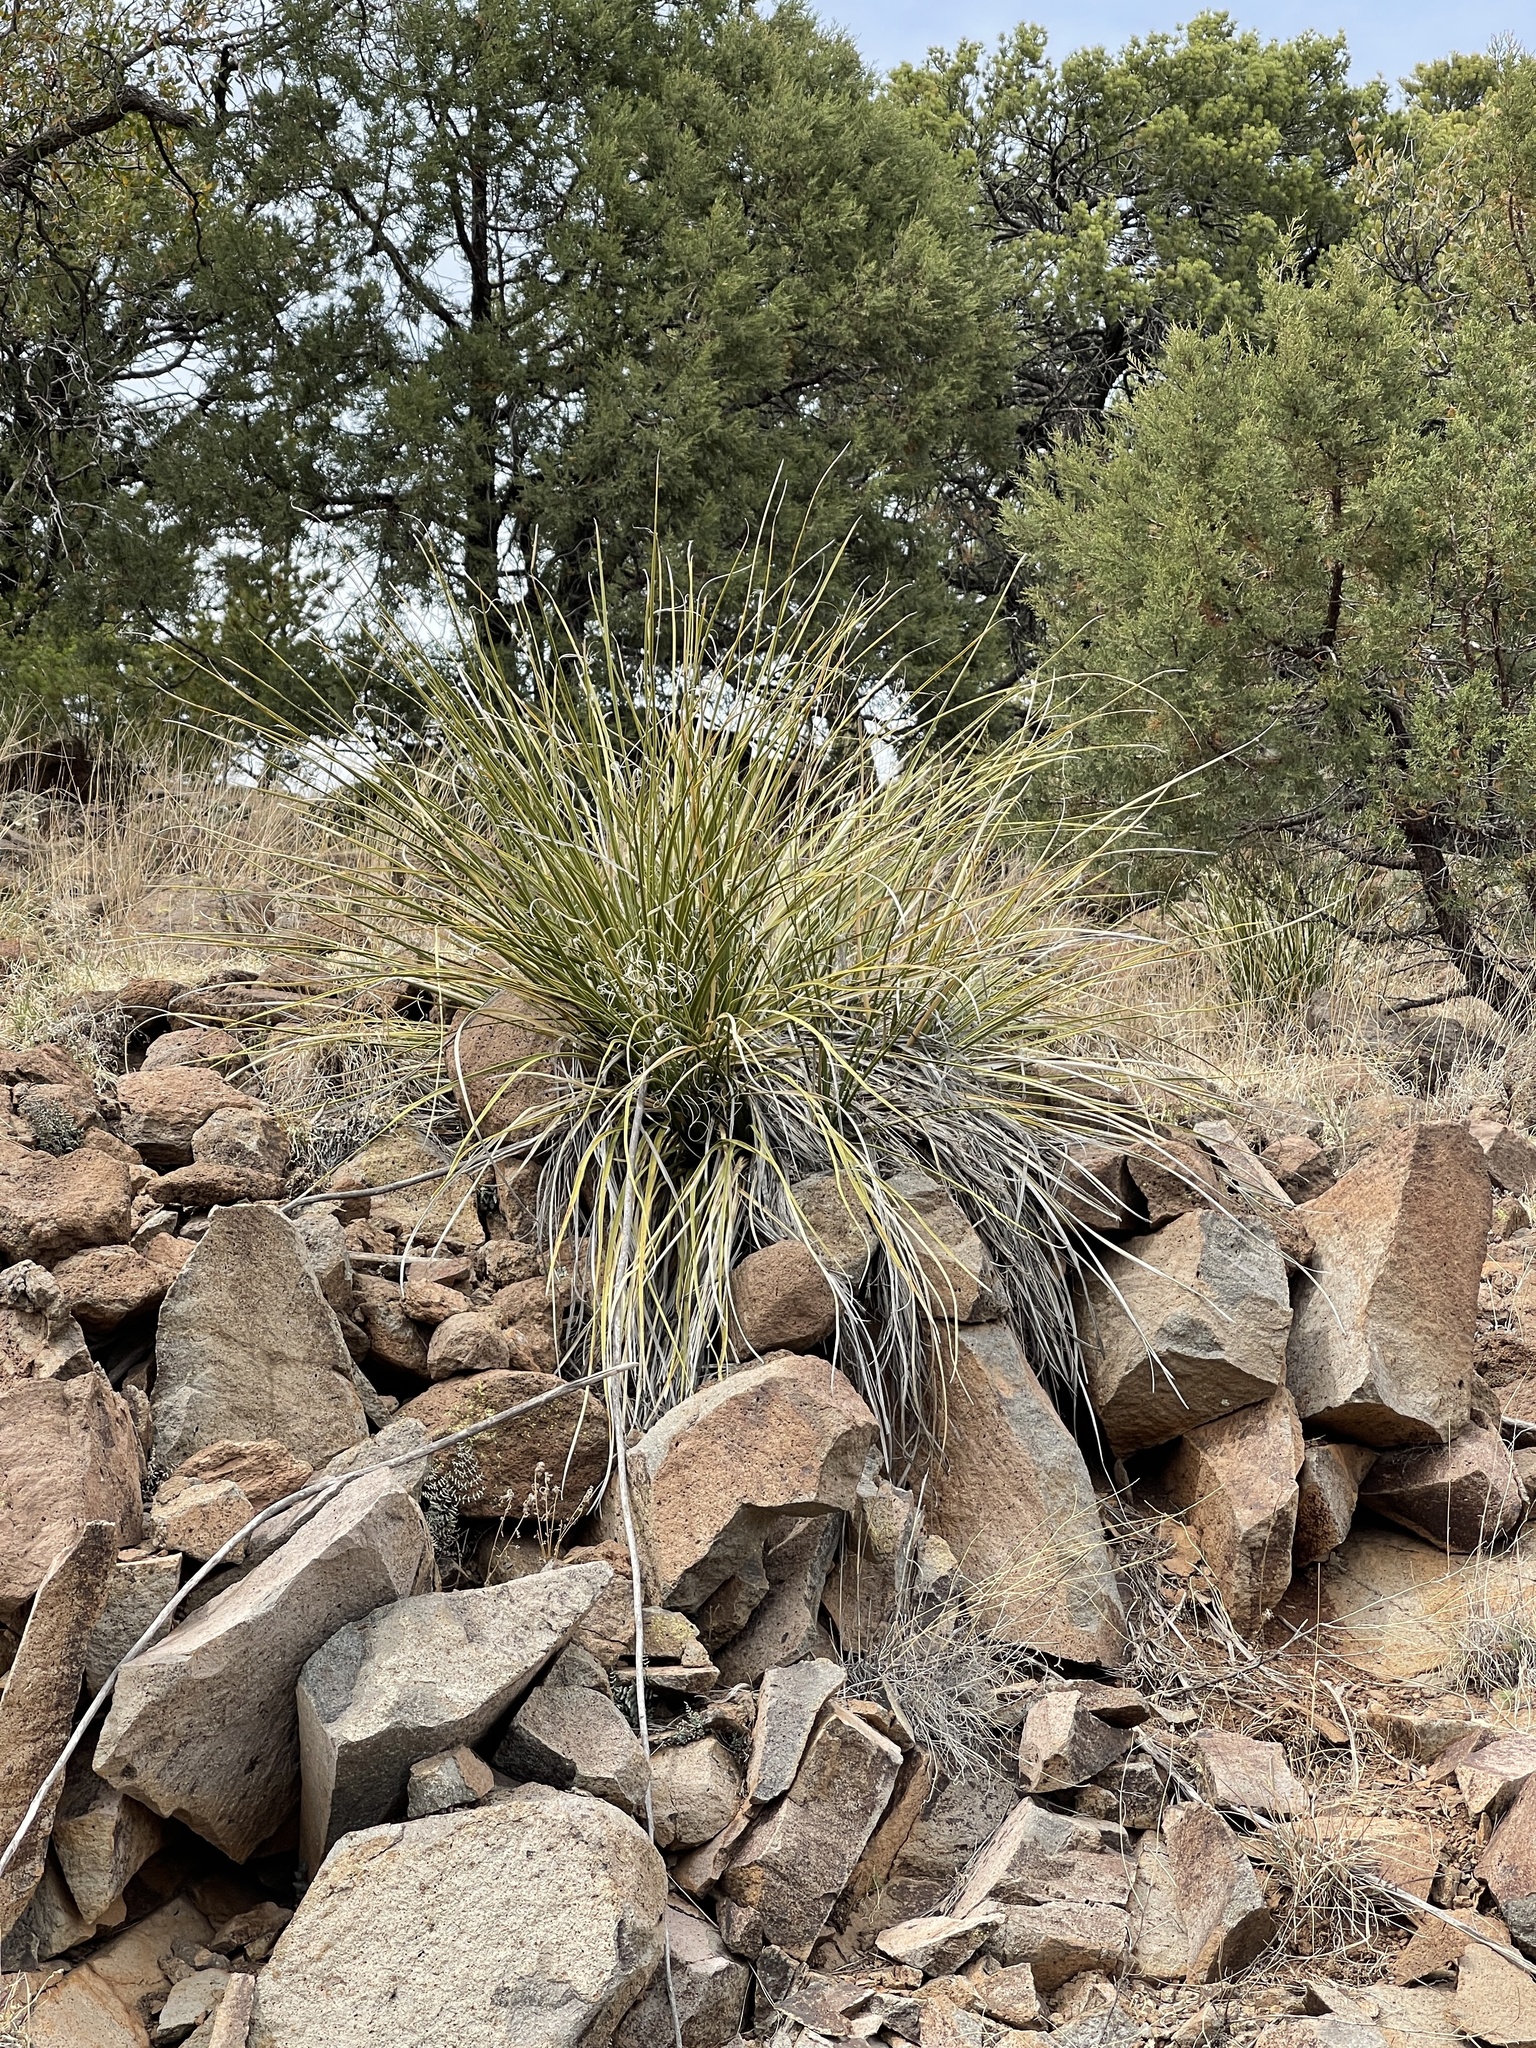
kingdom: Plantae
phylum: Tracheophyta
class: Liliopsida
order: Asparagales
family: Asparagaceae
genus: Nolina
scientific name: Nolina microcarpa
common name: Bear-grass
